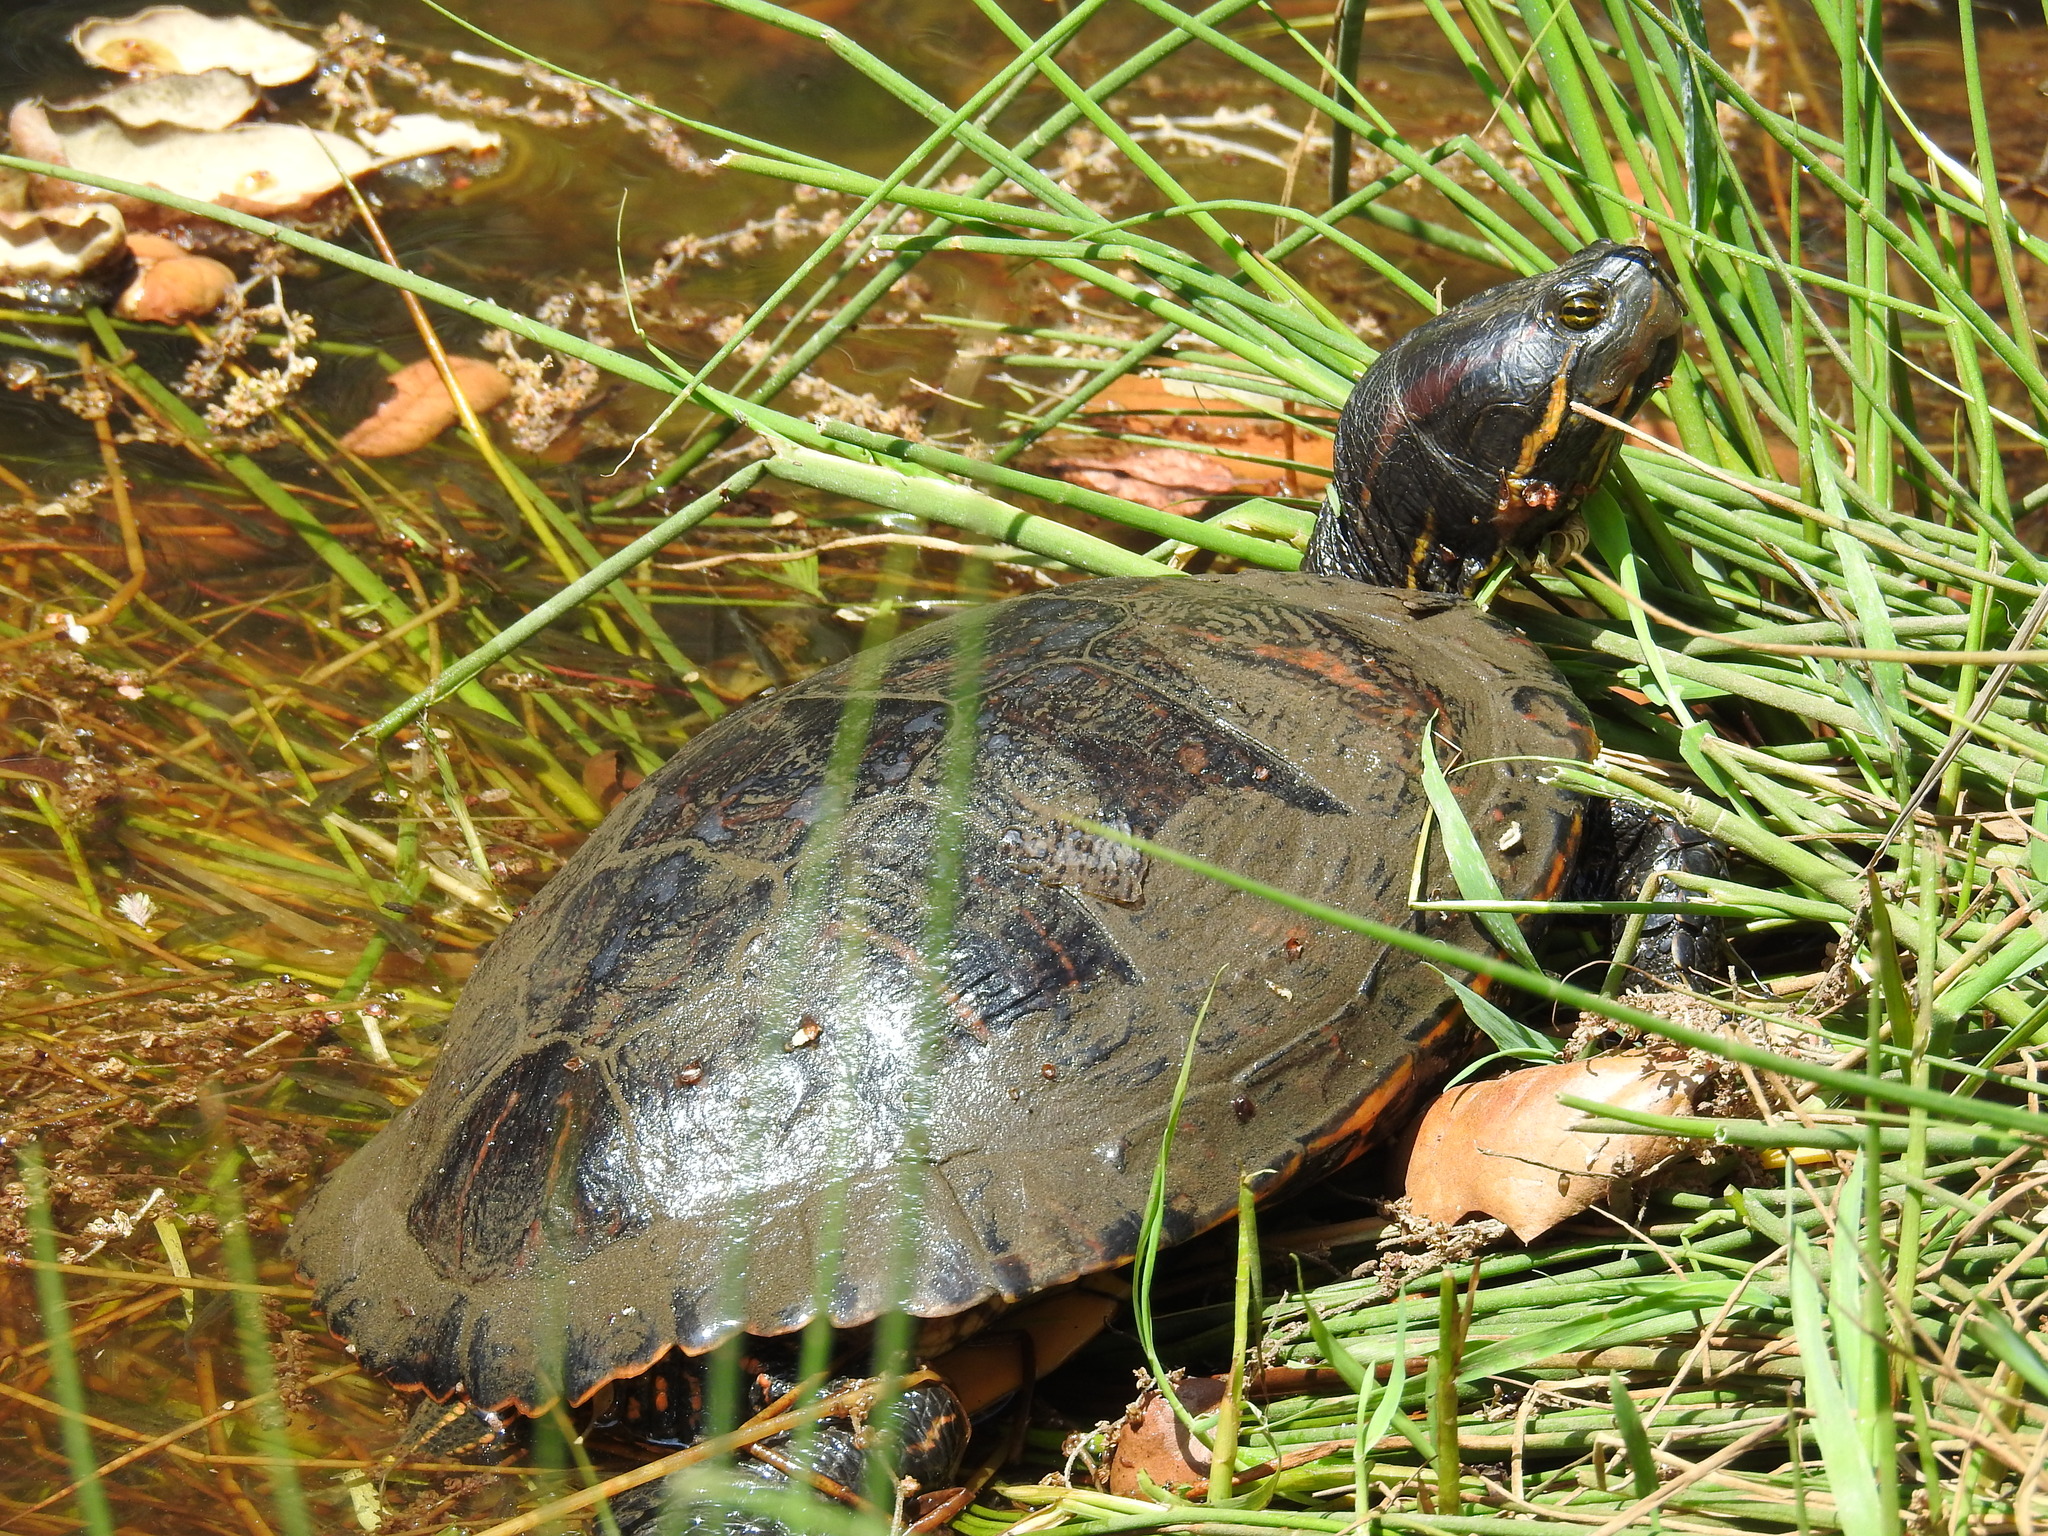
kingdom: Animalia
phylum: Chordata
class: Testudines
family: Emydidae
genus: Trachemys
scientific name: Trachemys scripta
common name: Slider
